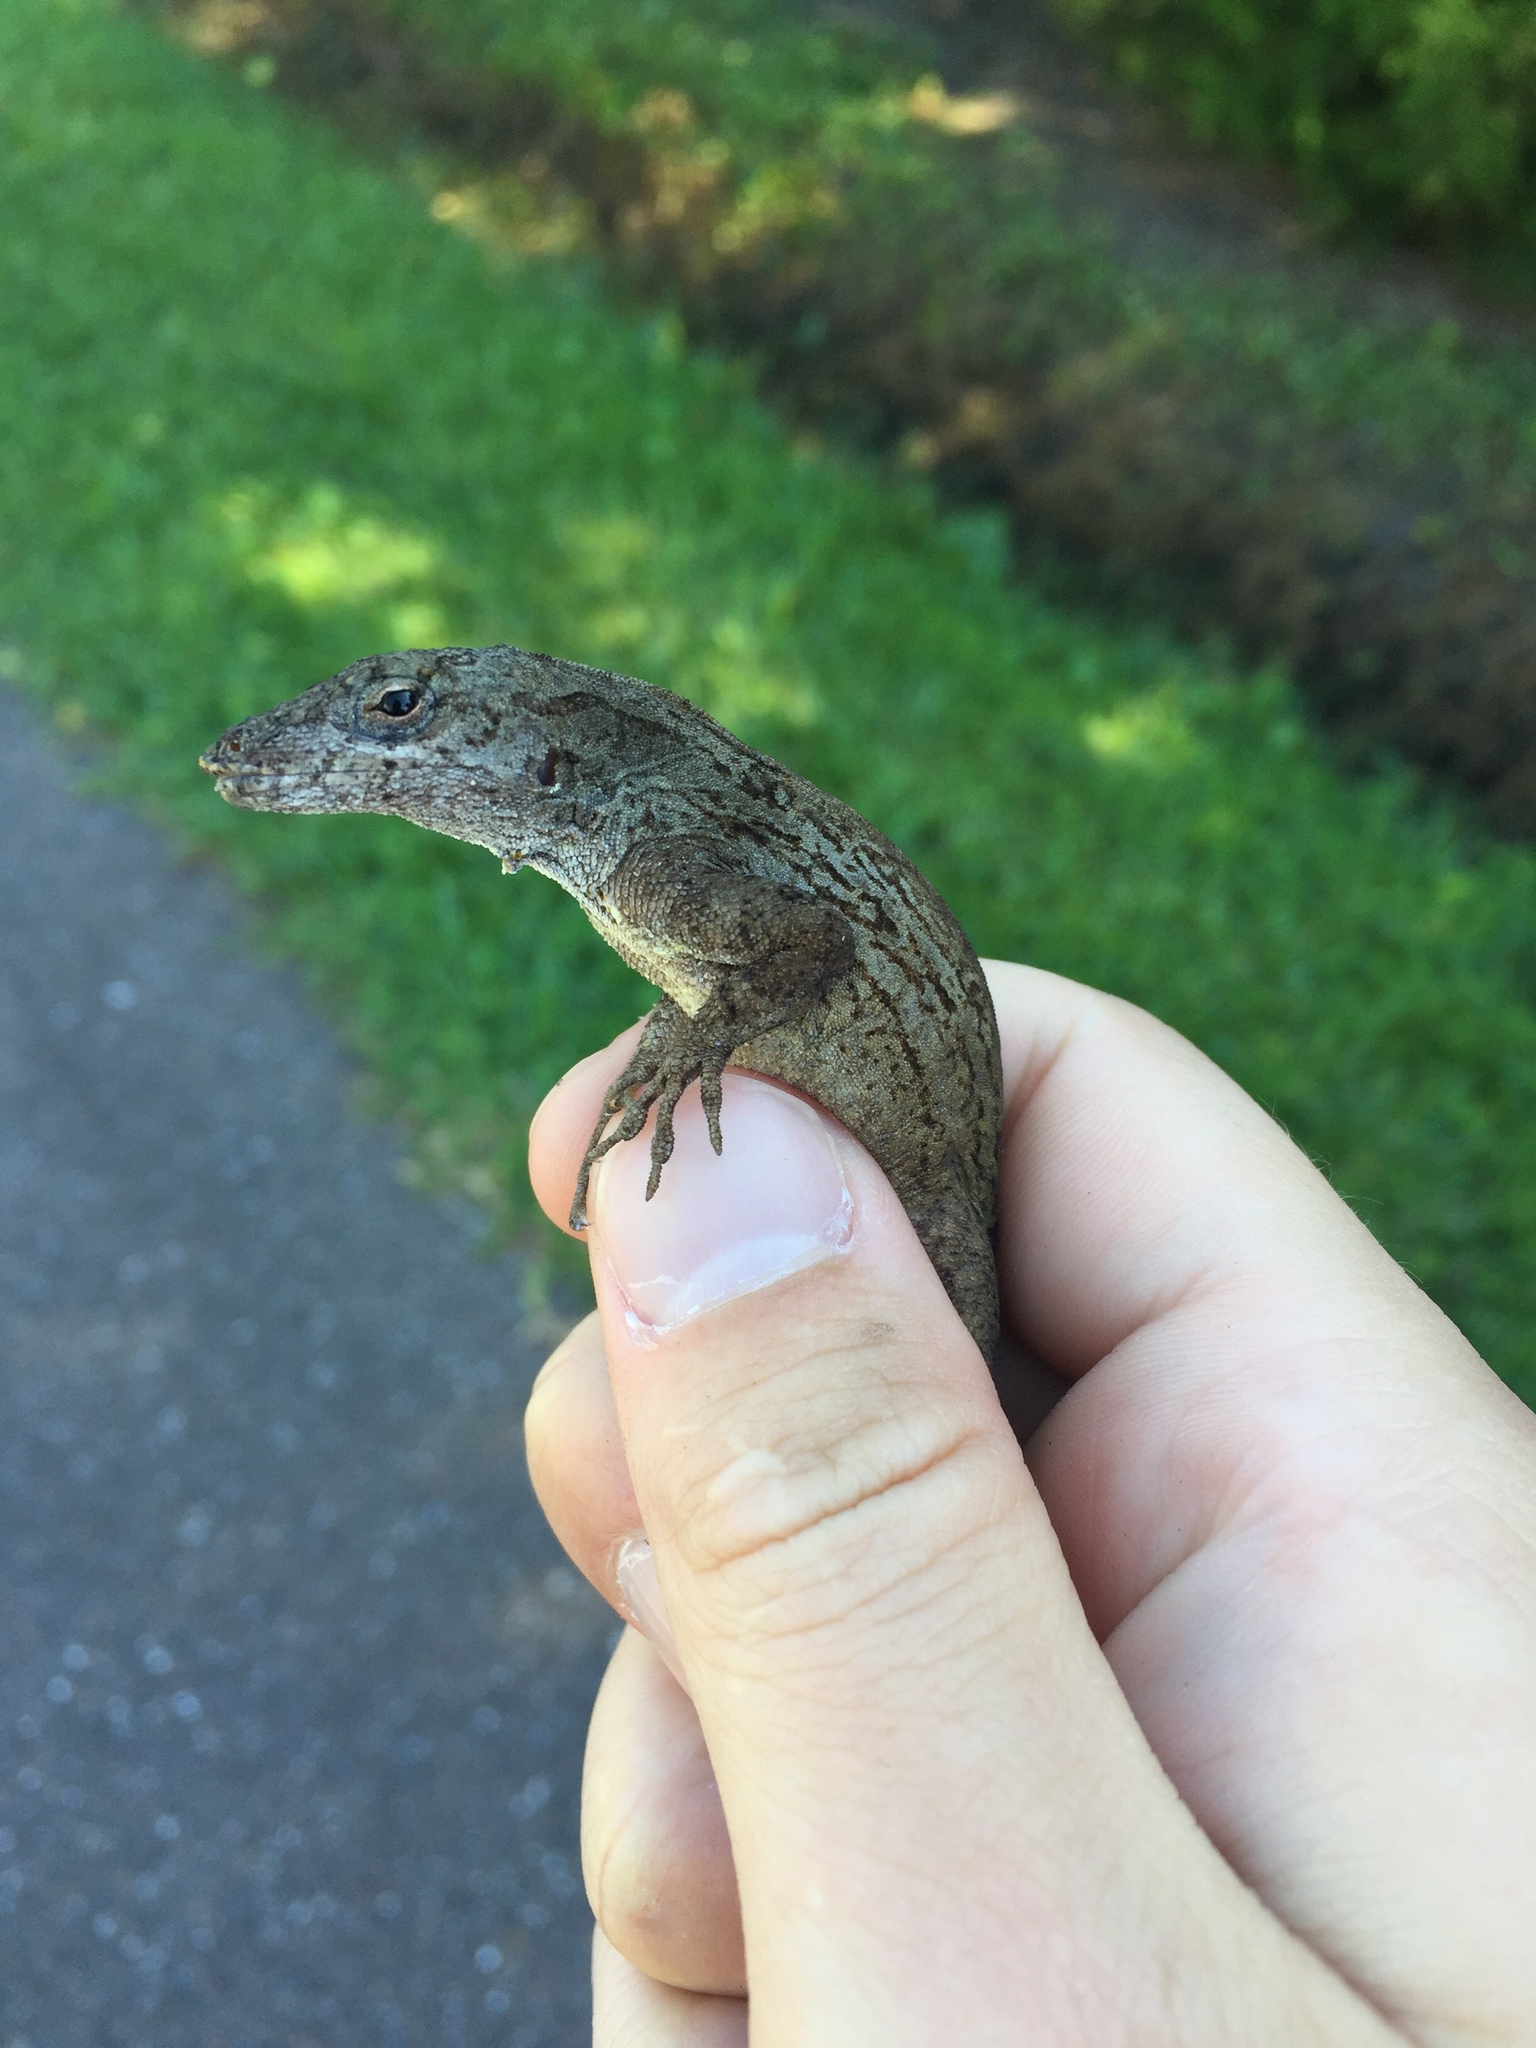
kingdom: Animalia
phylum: Chordata
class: Squamata
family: Dactyloidae
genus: Anolis
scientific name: Anolis sagrei
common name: Brown anole
